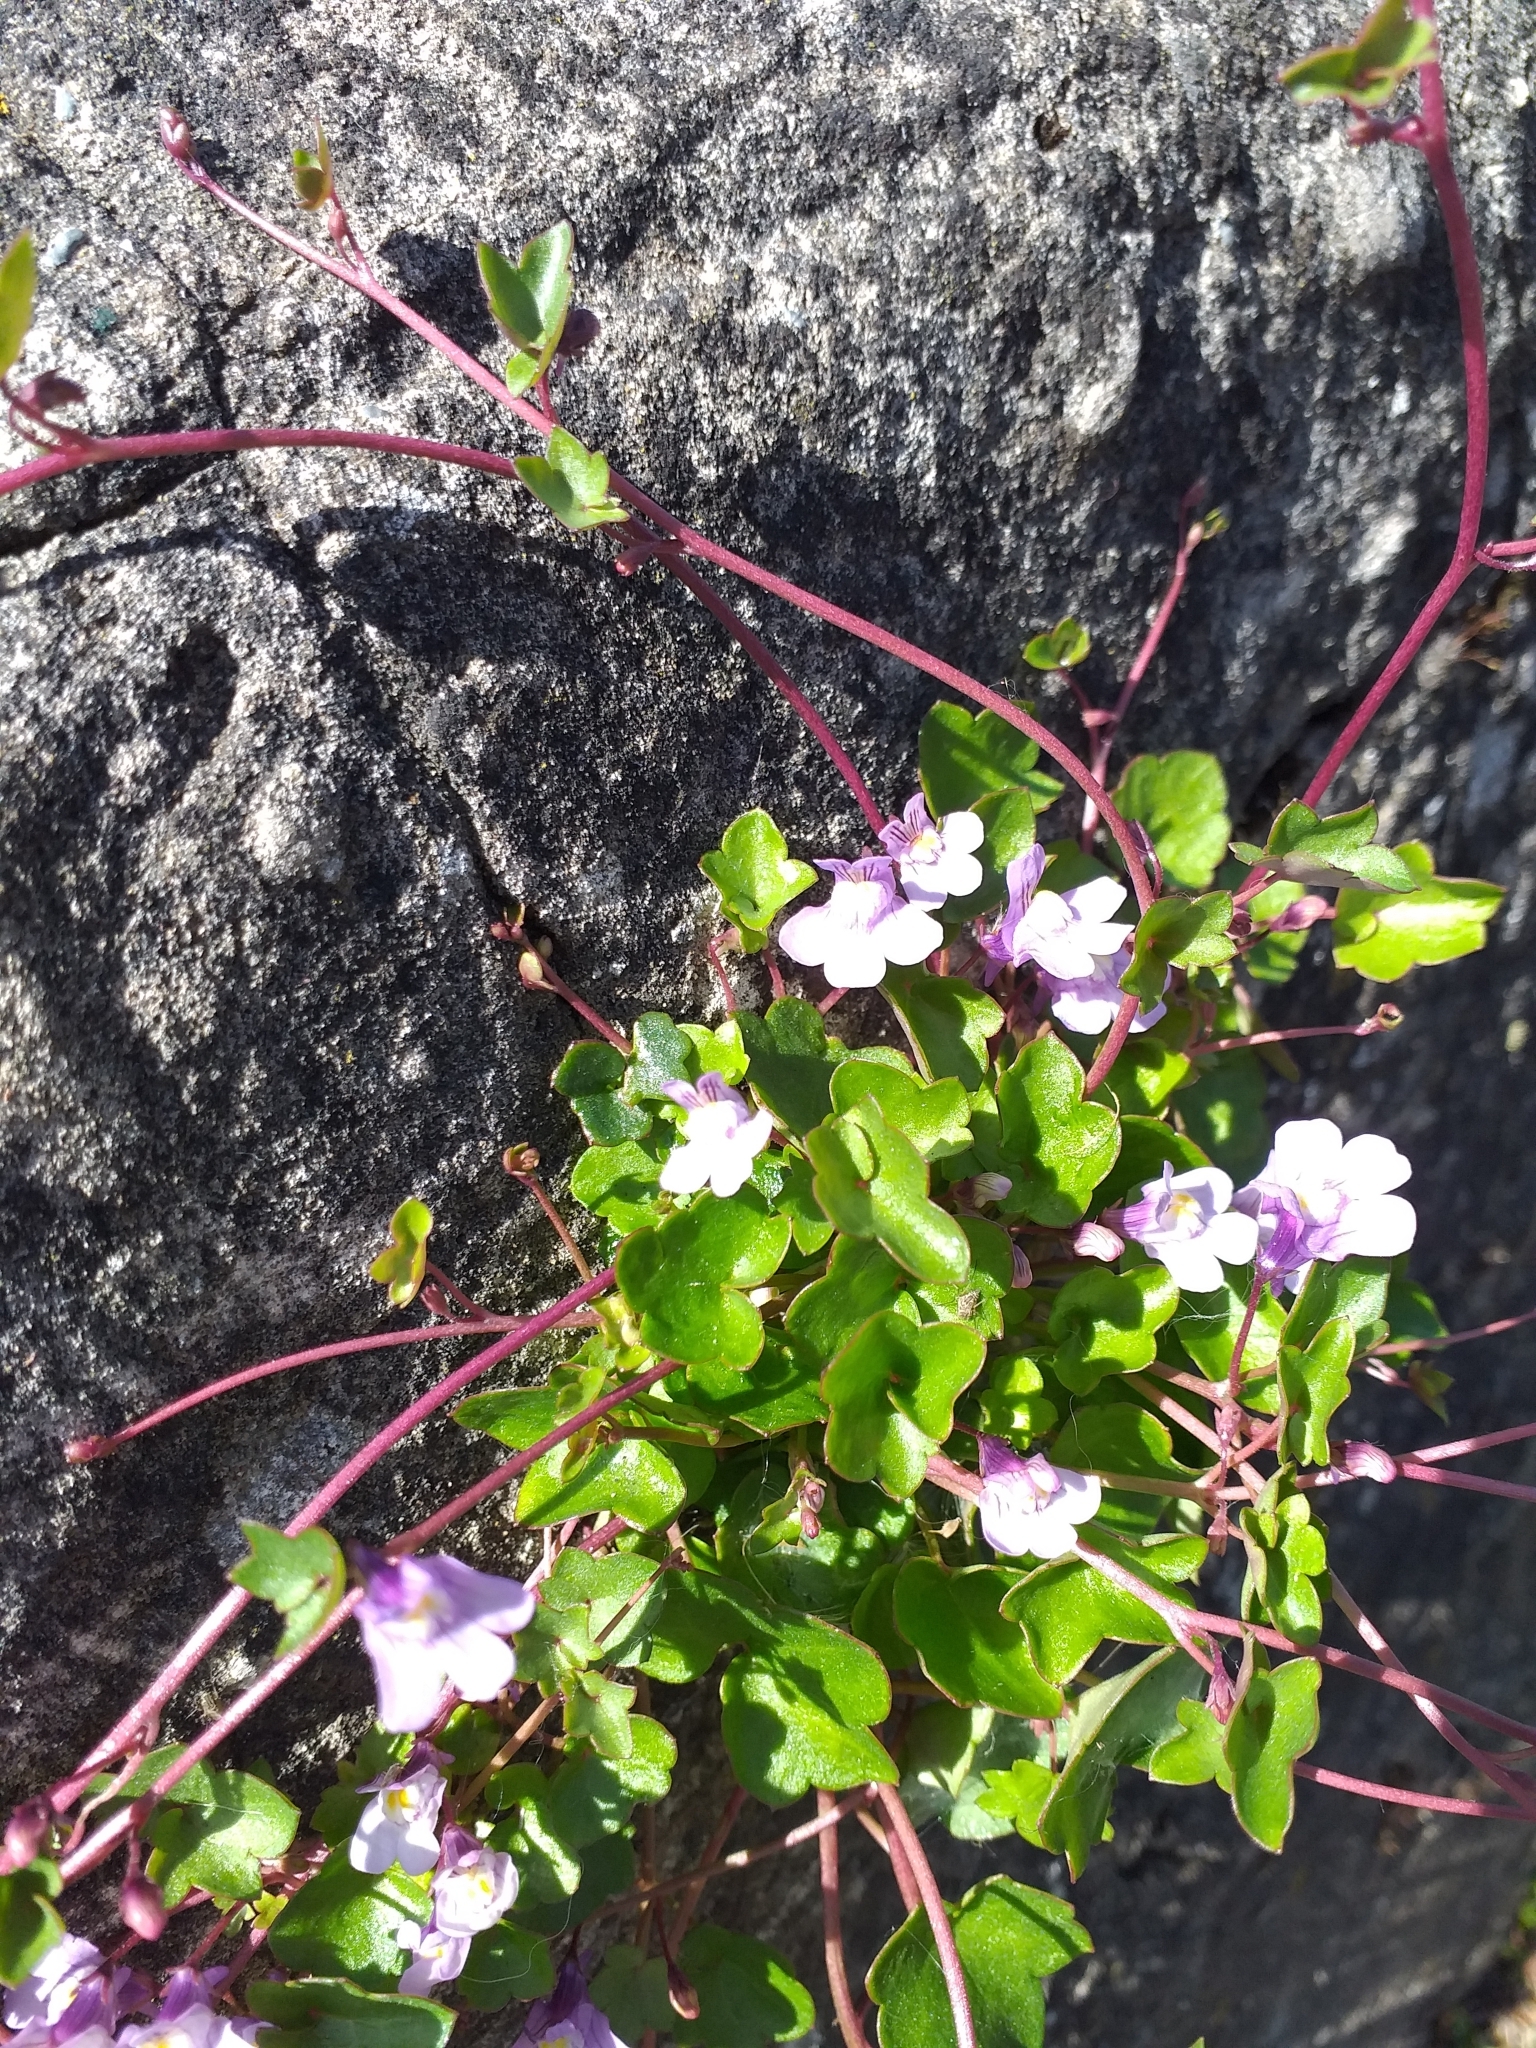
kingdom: Plantae
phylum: Tracheophyta
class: Magnoliopsida
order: Lamiales
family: Plantaginaceae
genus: Cymbalaria
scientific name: Cymbalaria muralis
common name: Ivy-leaved toadflax
